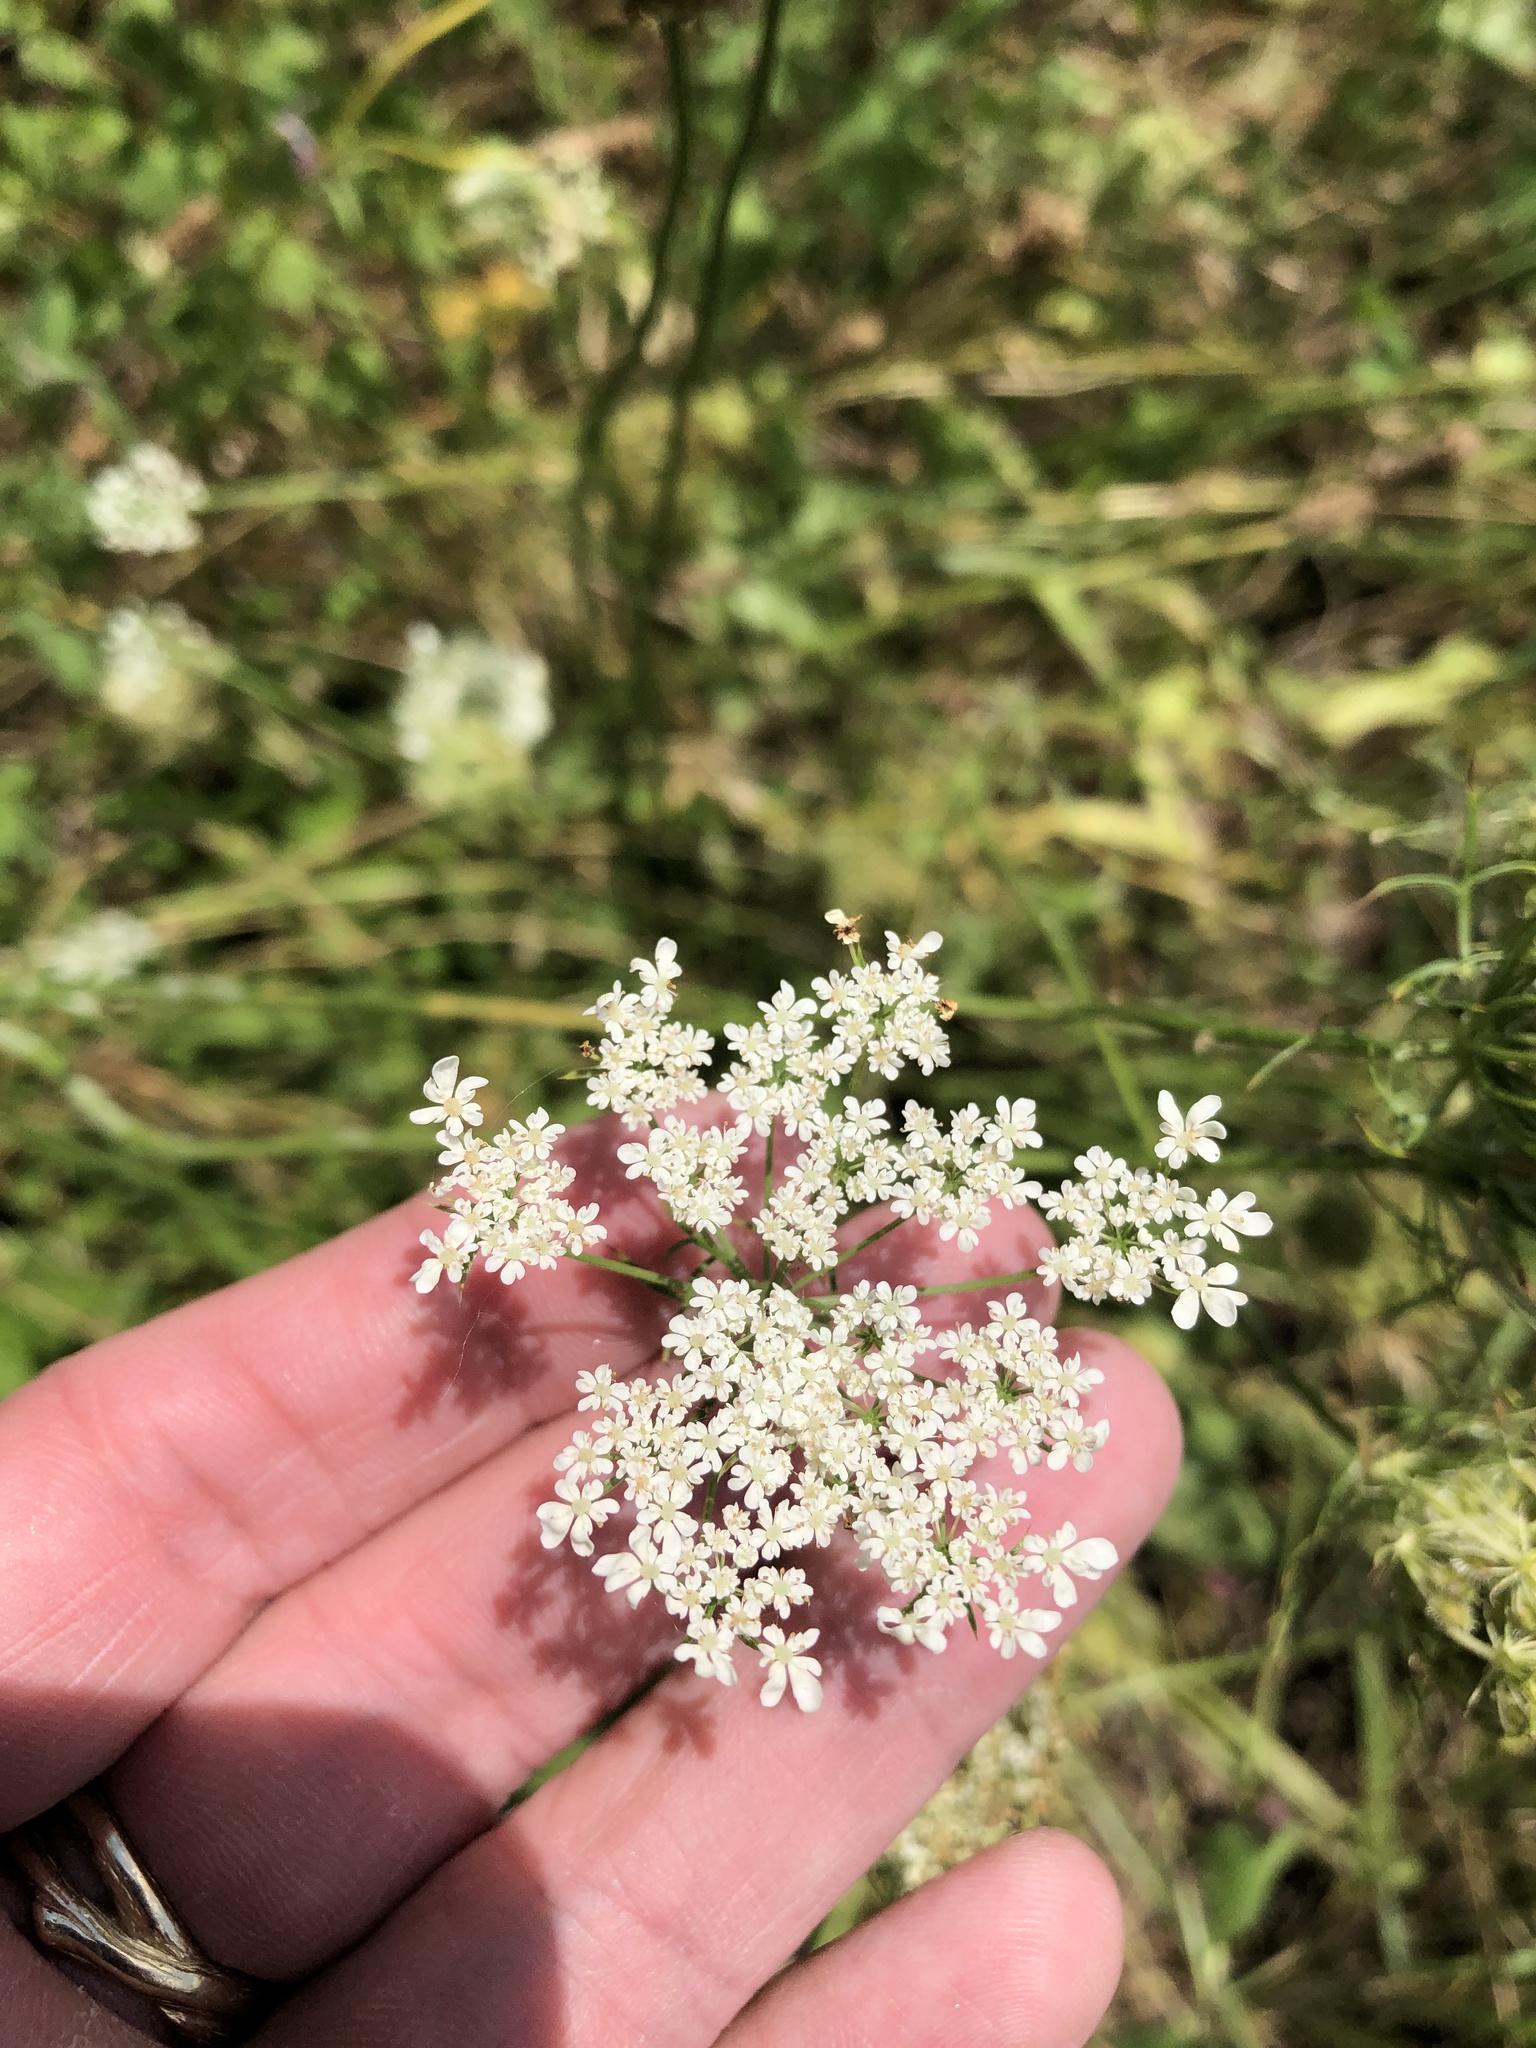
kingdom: Plantae
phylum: Tracheophyta
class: Magnoliopsida
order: Apiales
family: Apiaceae
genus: Daucus
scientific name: Daucus carota
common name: Wild carrot
